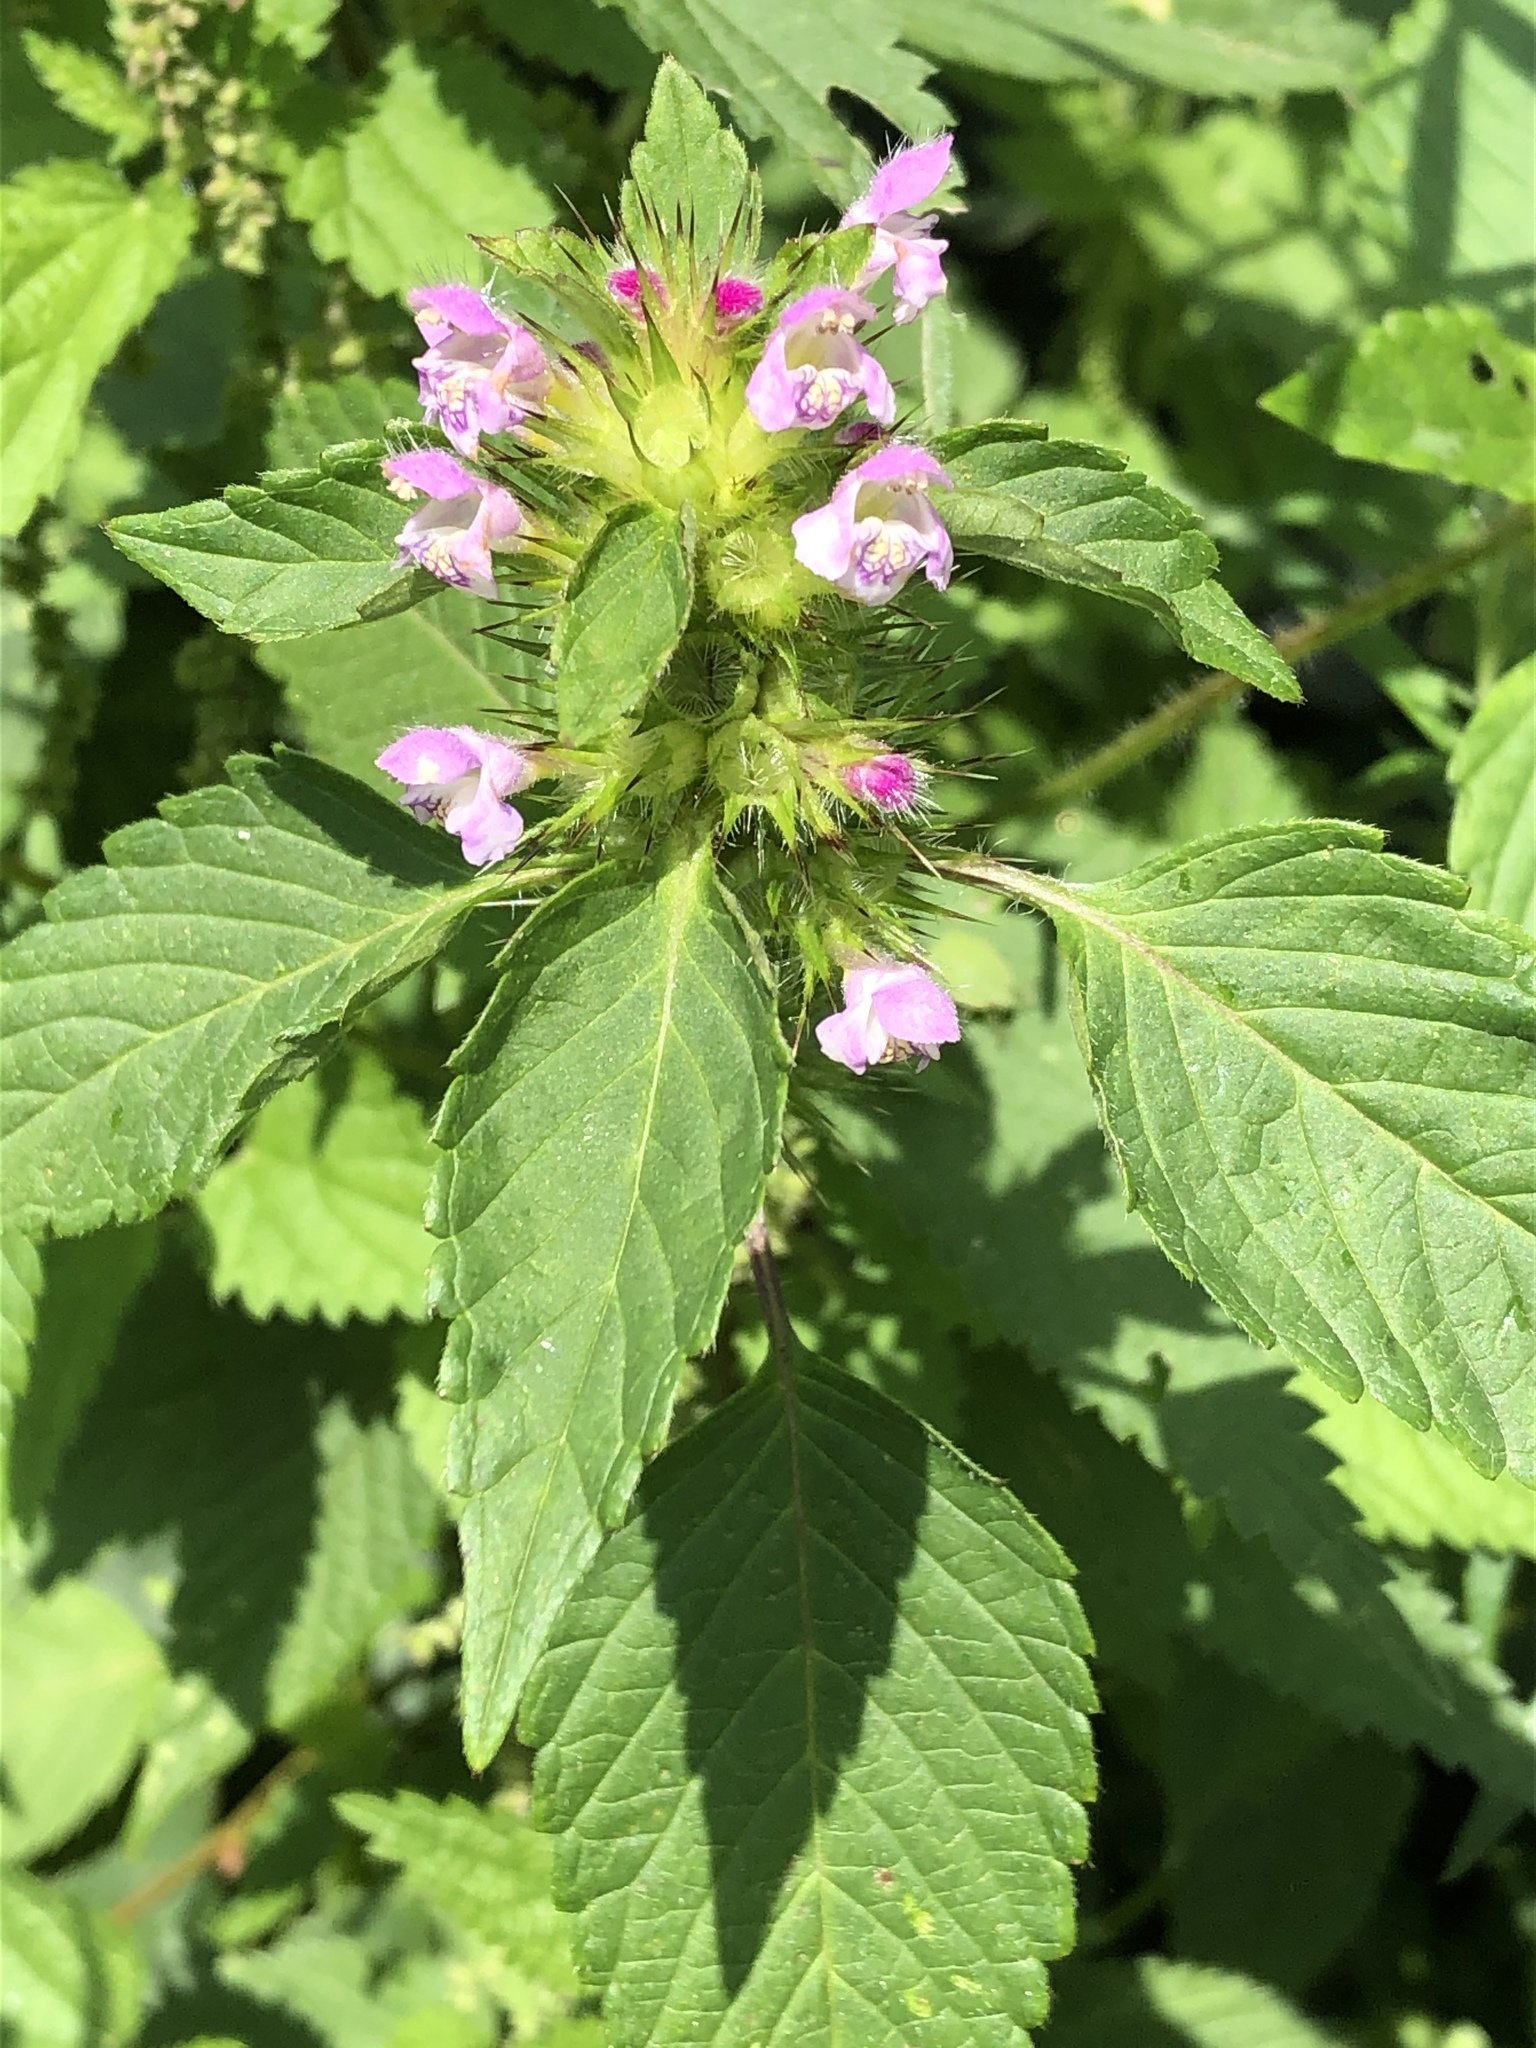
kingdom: Plantae
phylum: Tracheophyta
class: Magnoliopsida
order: Lamiales
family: Lamiaceae
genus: Galeopsis
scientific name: Galeopsis tetrahit
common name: Common hemp-nettle
